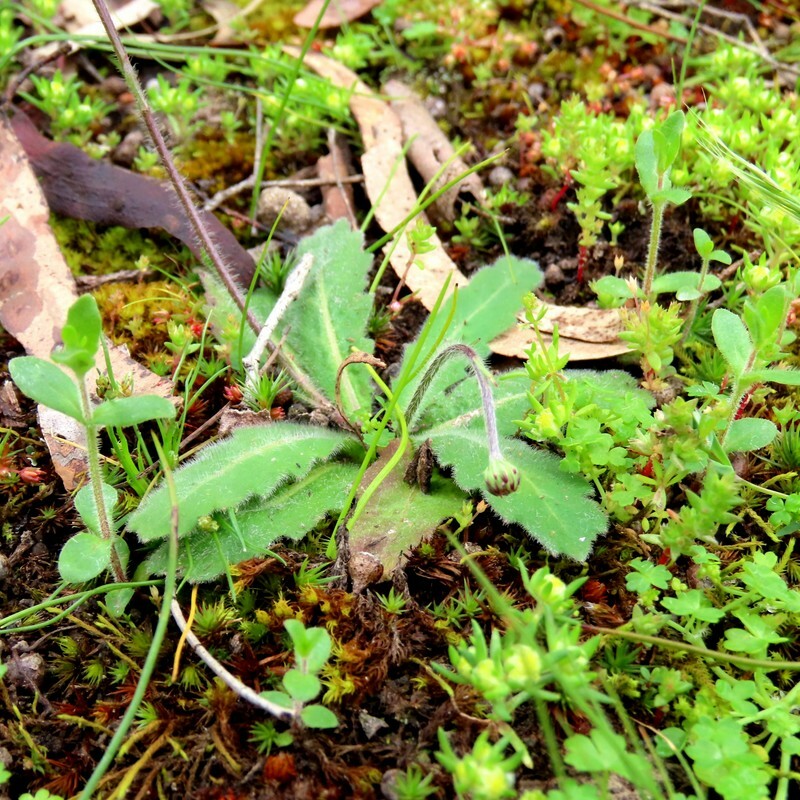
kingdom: Plantae
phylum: Tracheophyta
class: Magnoliopsida
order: Asterales
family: Asteraceae
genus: Lagenophora
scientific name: Lagenophora huegelii
